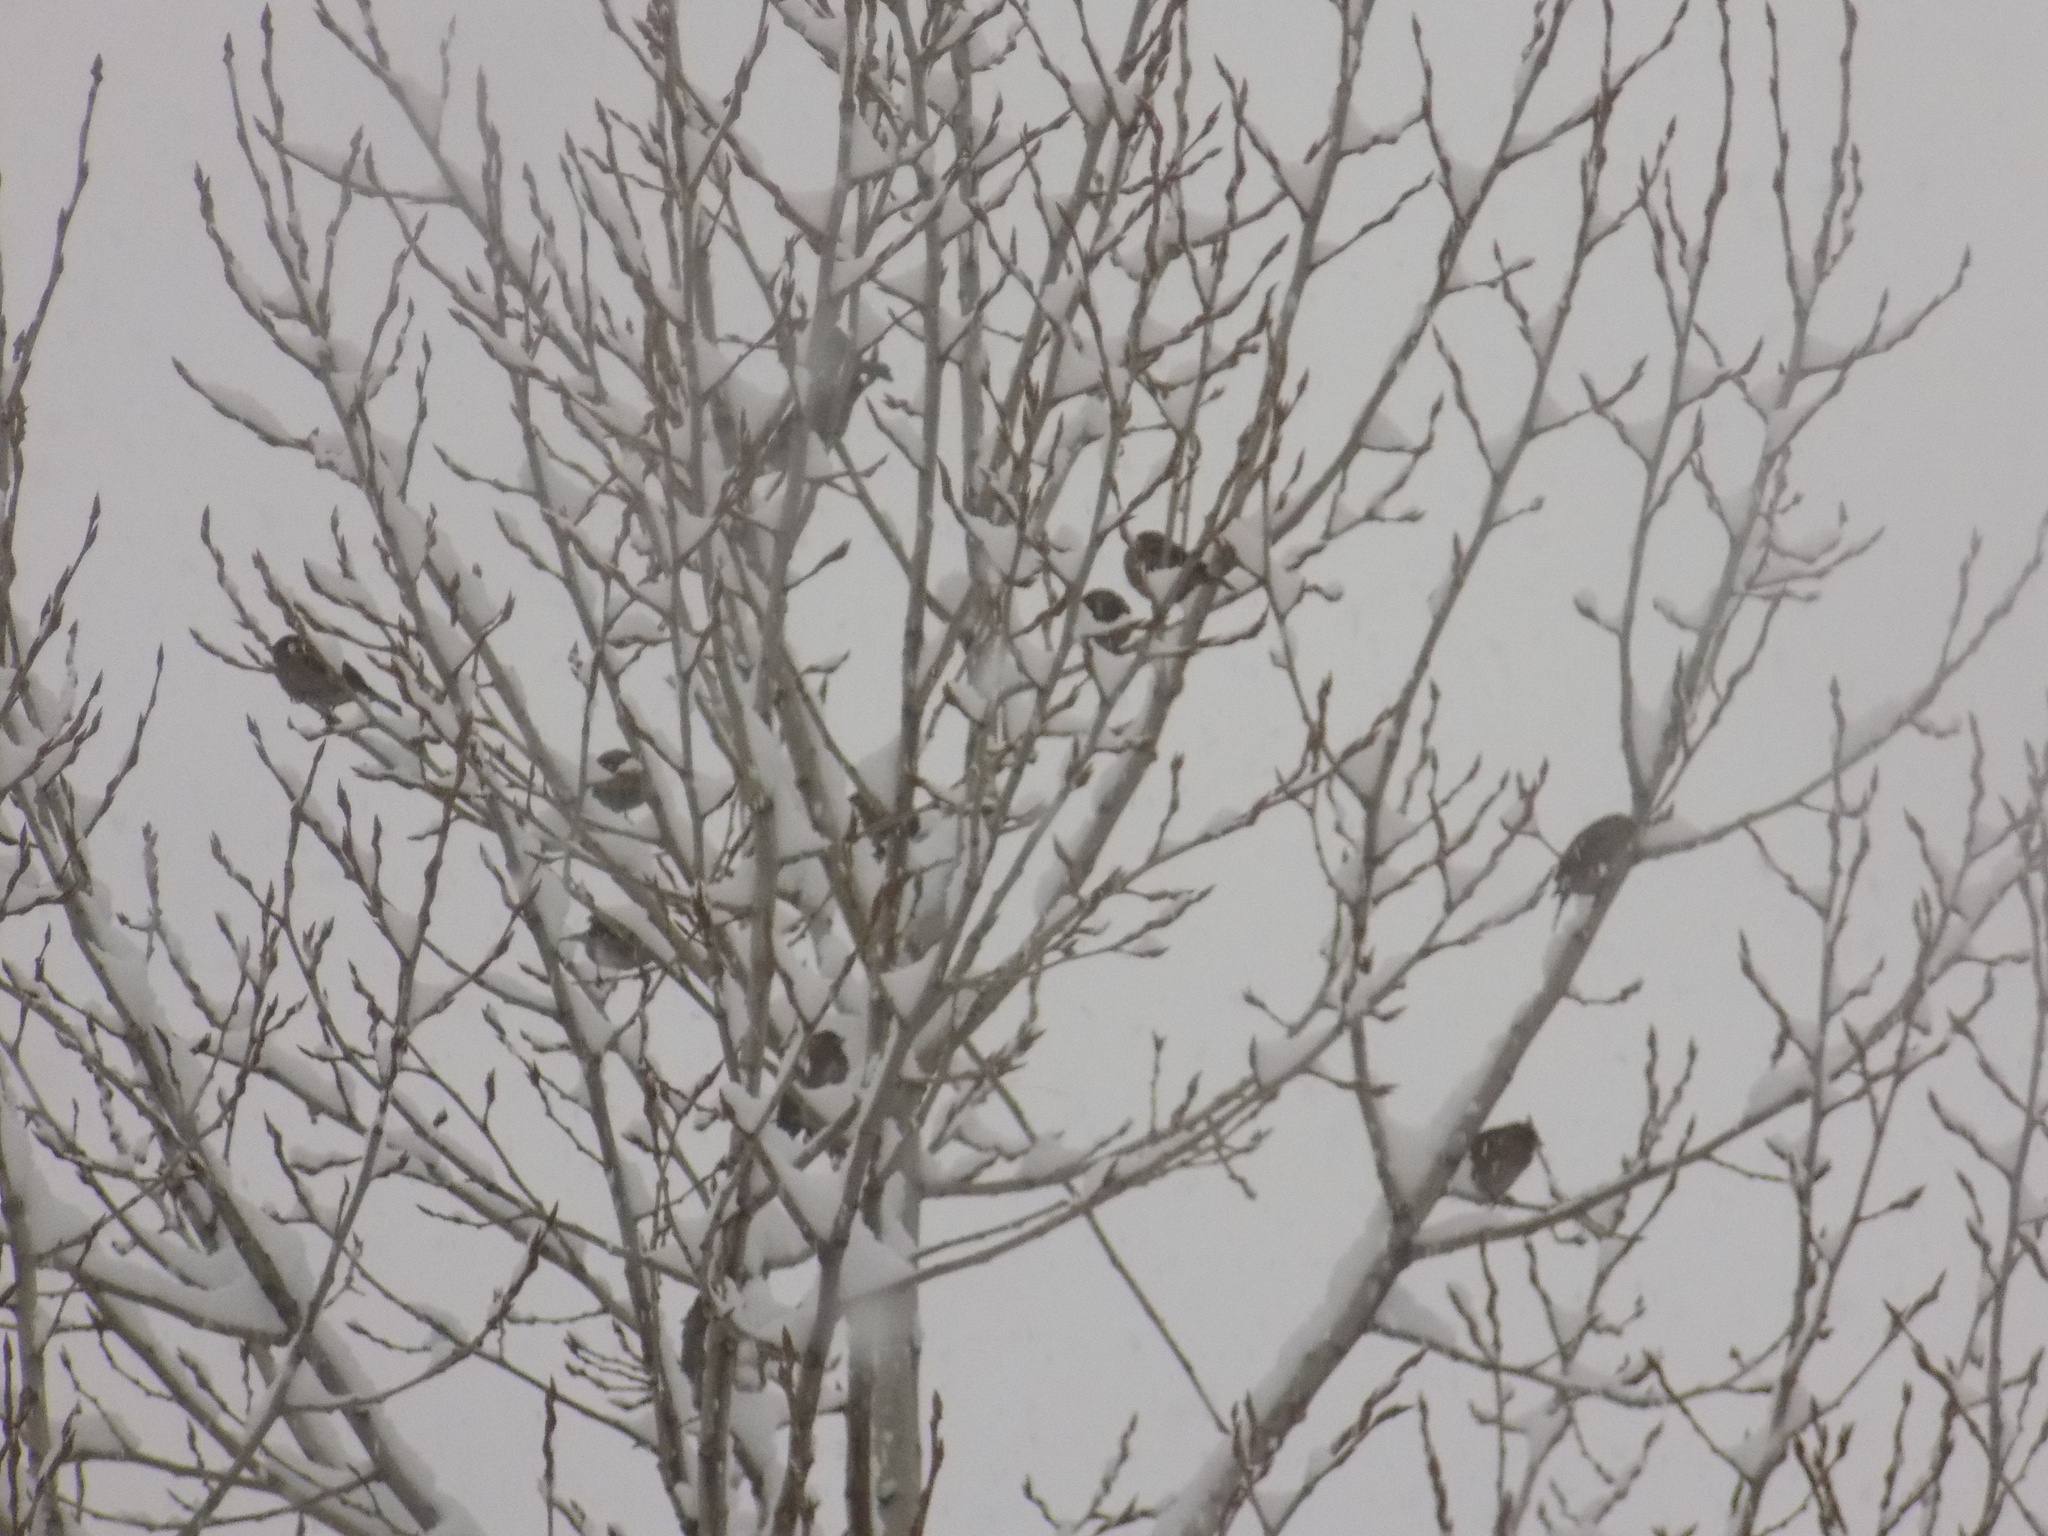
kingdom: Animalia
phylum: Chordata
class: Aves
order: Passeriformes
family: Passeridae
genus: Passer
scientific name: Passer domesticus
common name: House sparrow
